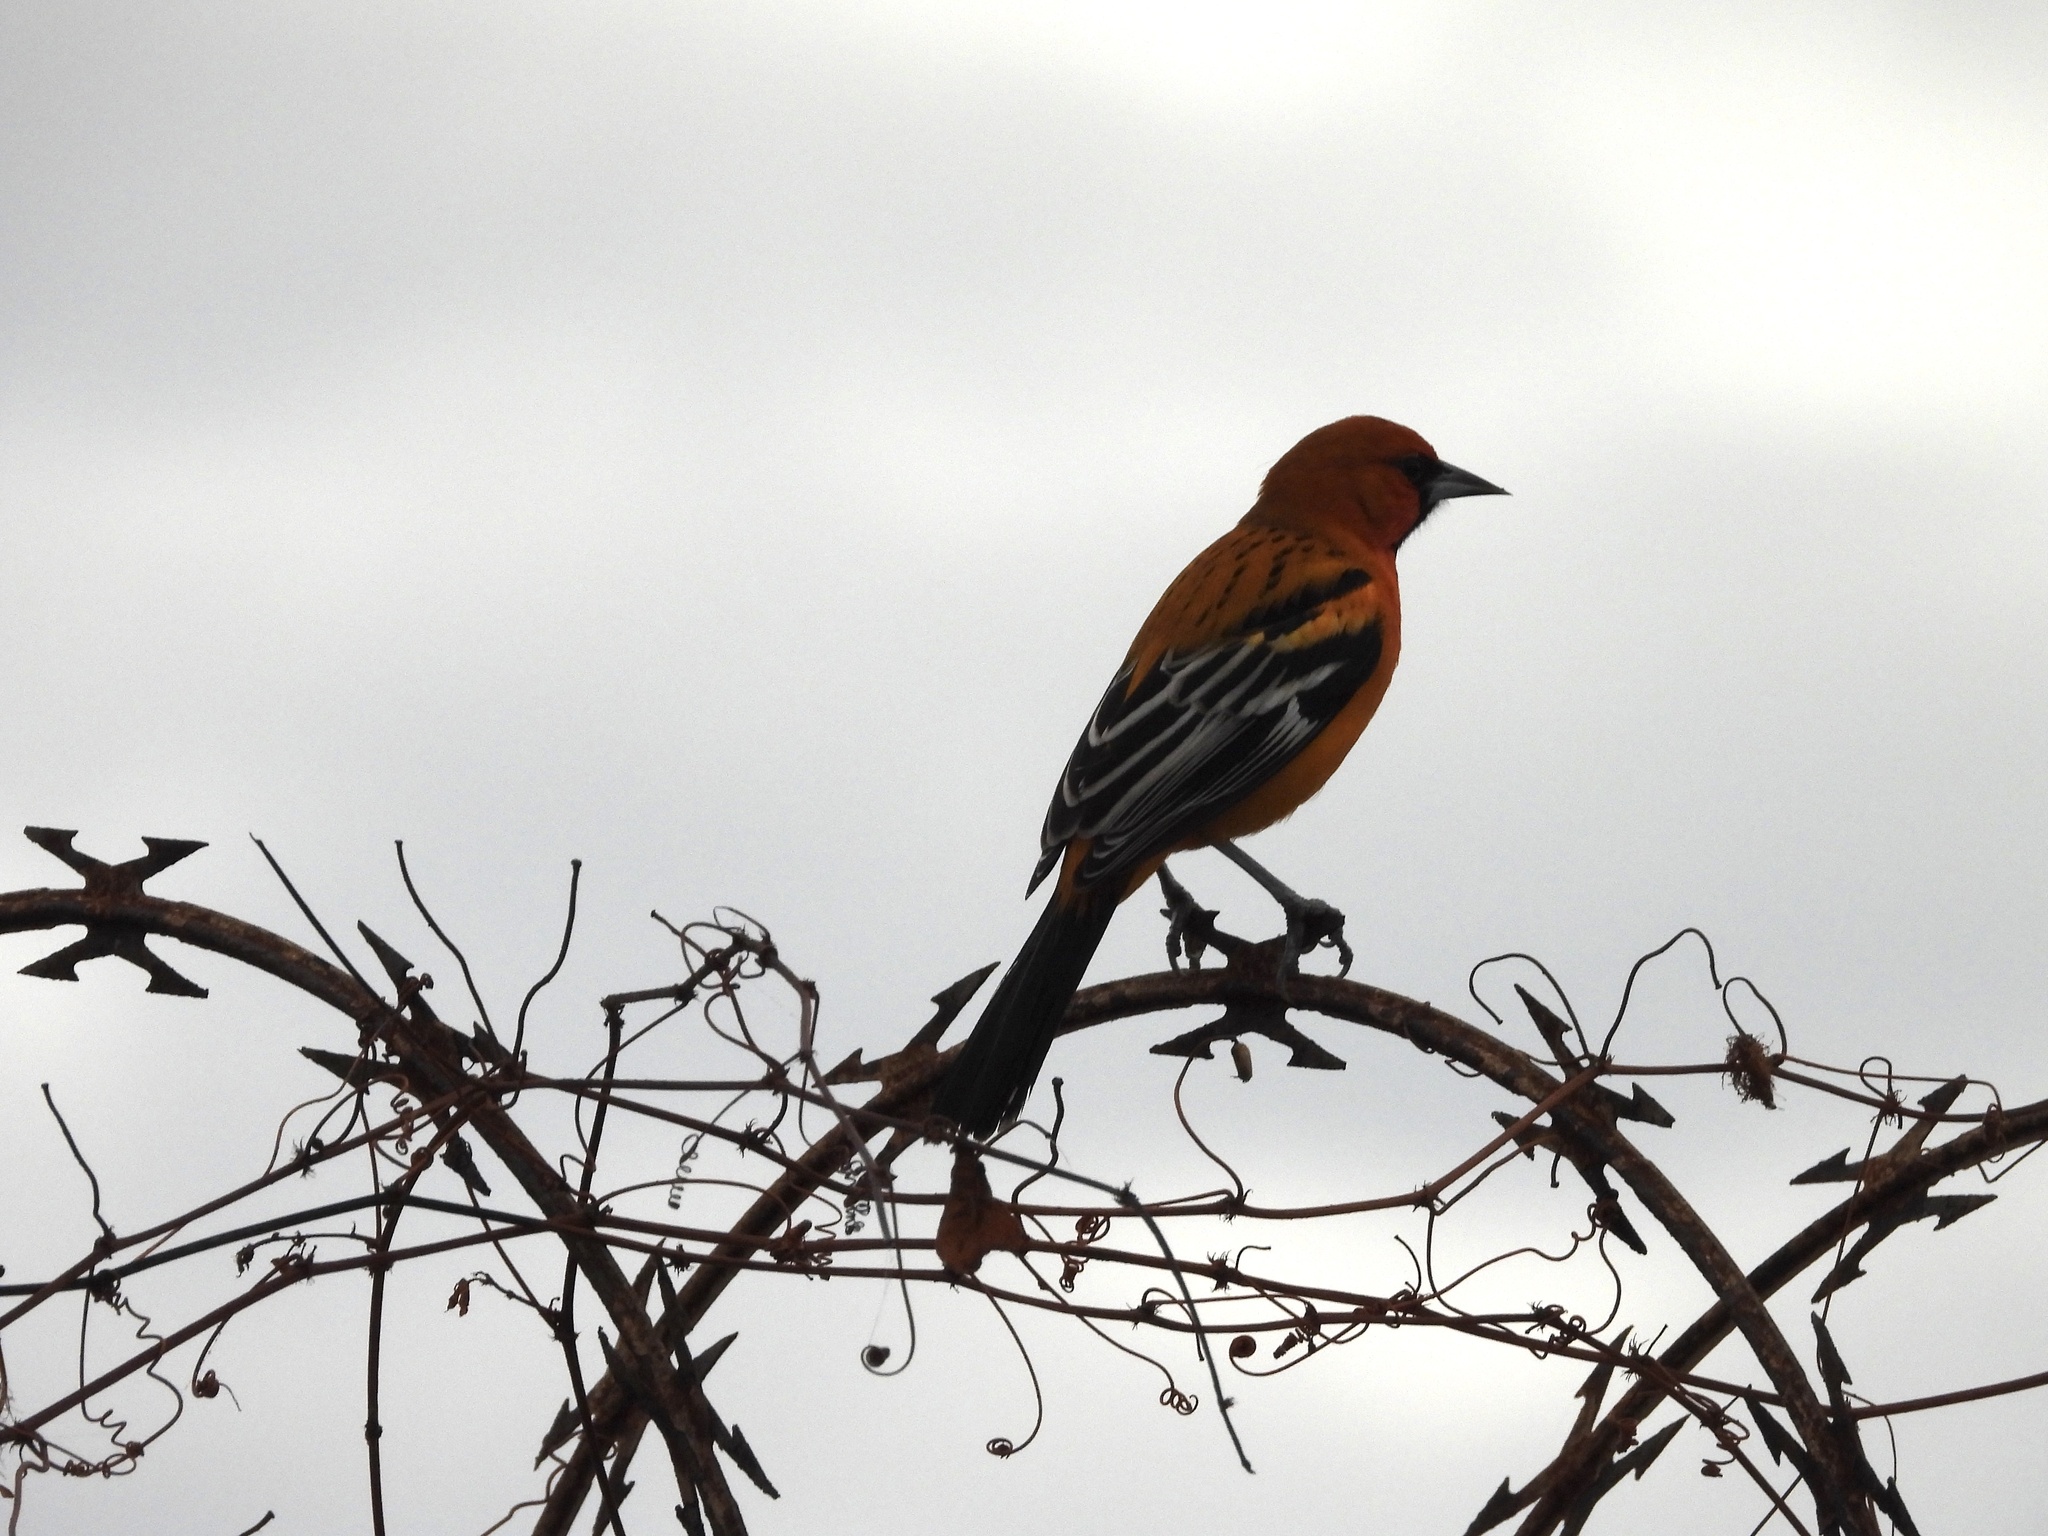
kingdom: Animalia
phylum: Chordata
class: Aves
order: Passeriformes
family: Icteridae
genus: Icterus
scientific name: Icterus pustulatus
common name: Streak-backed oriole
